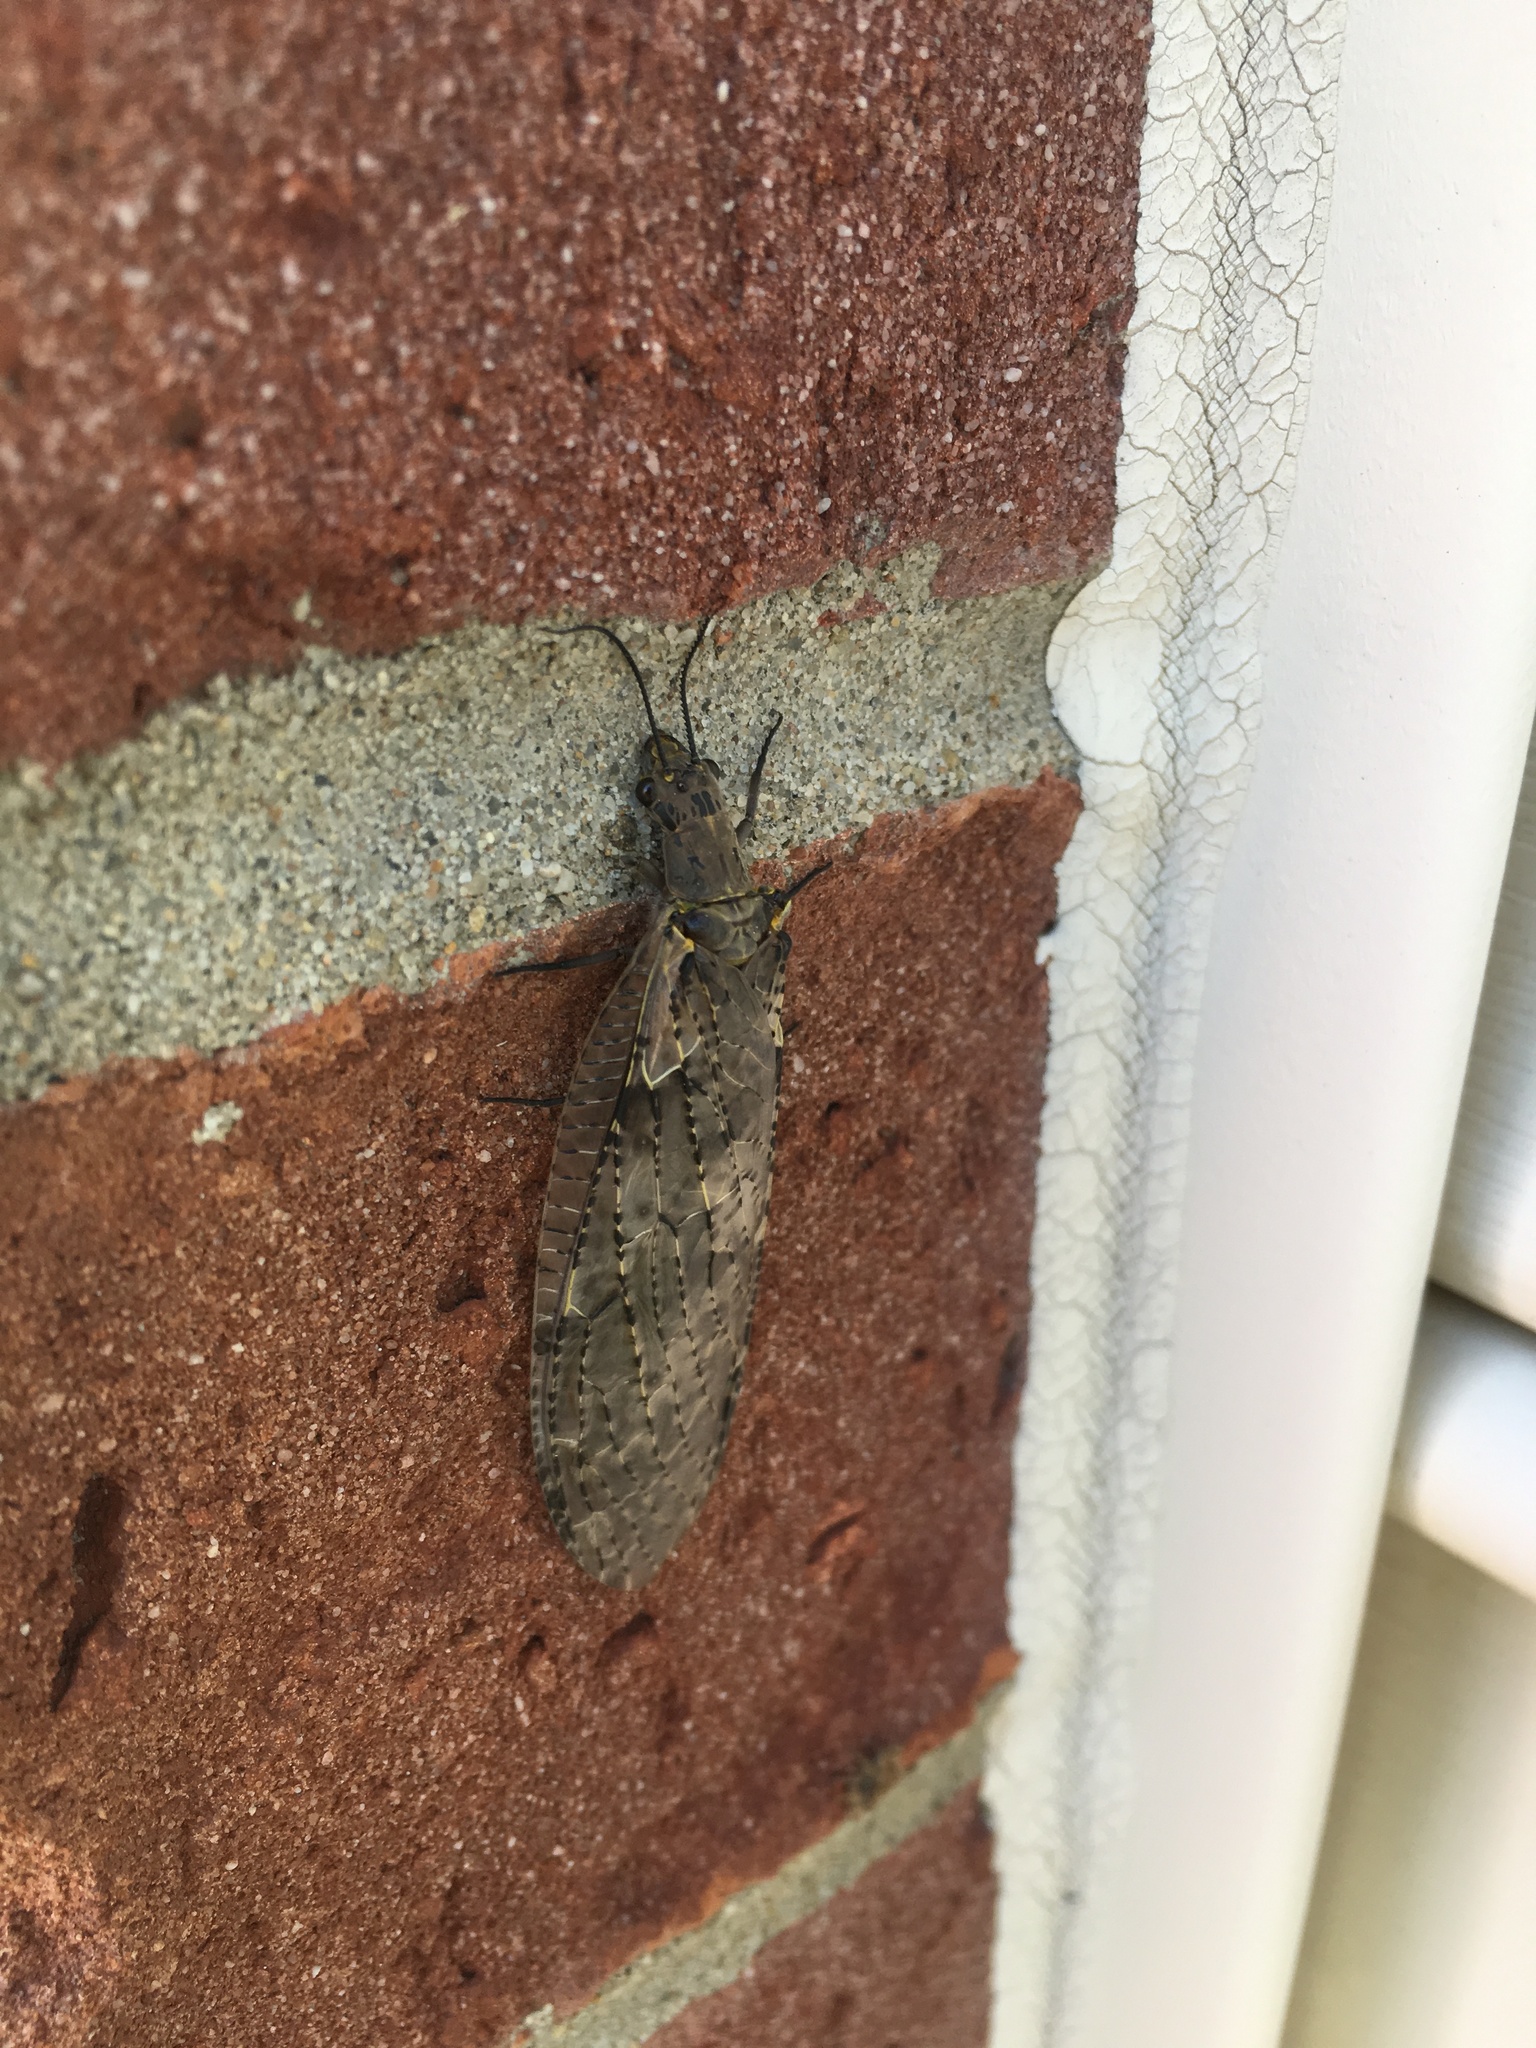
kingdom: Animalia
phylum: Arthropoda
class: Insecta
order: Megaloptera
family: Corydalidae
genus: Chauliodes
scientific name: Chauliodes rastricornis
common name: Spring fishfly
